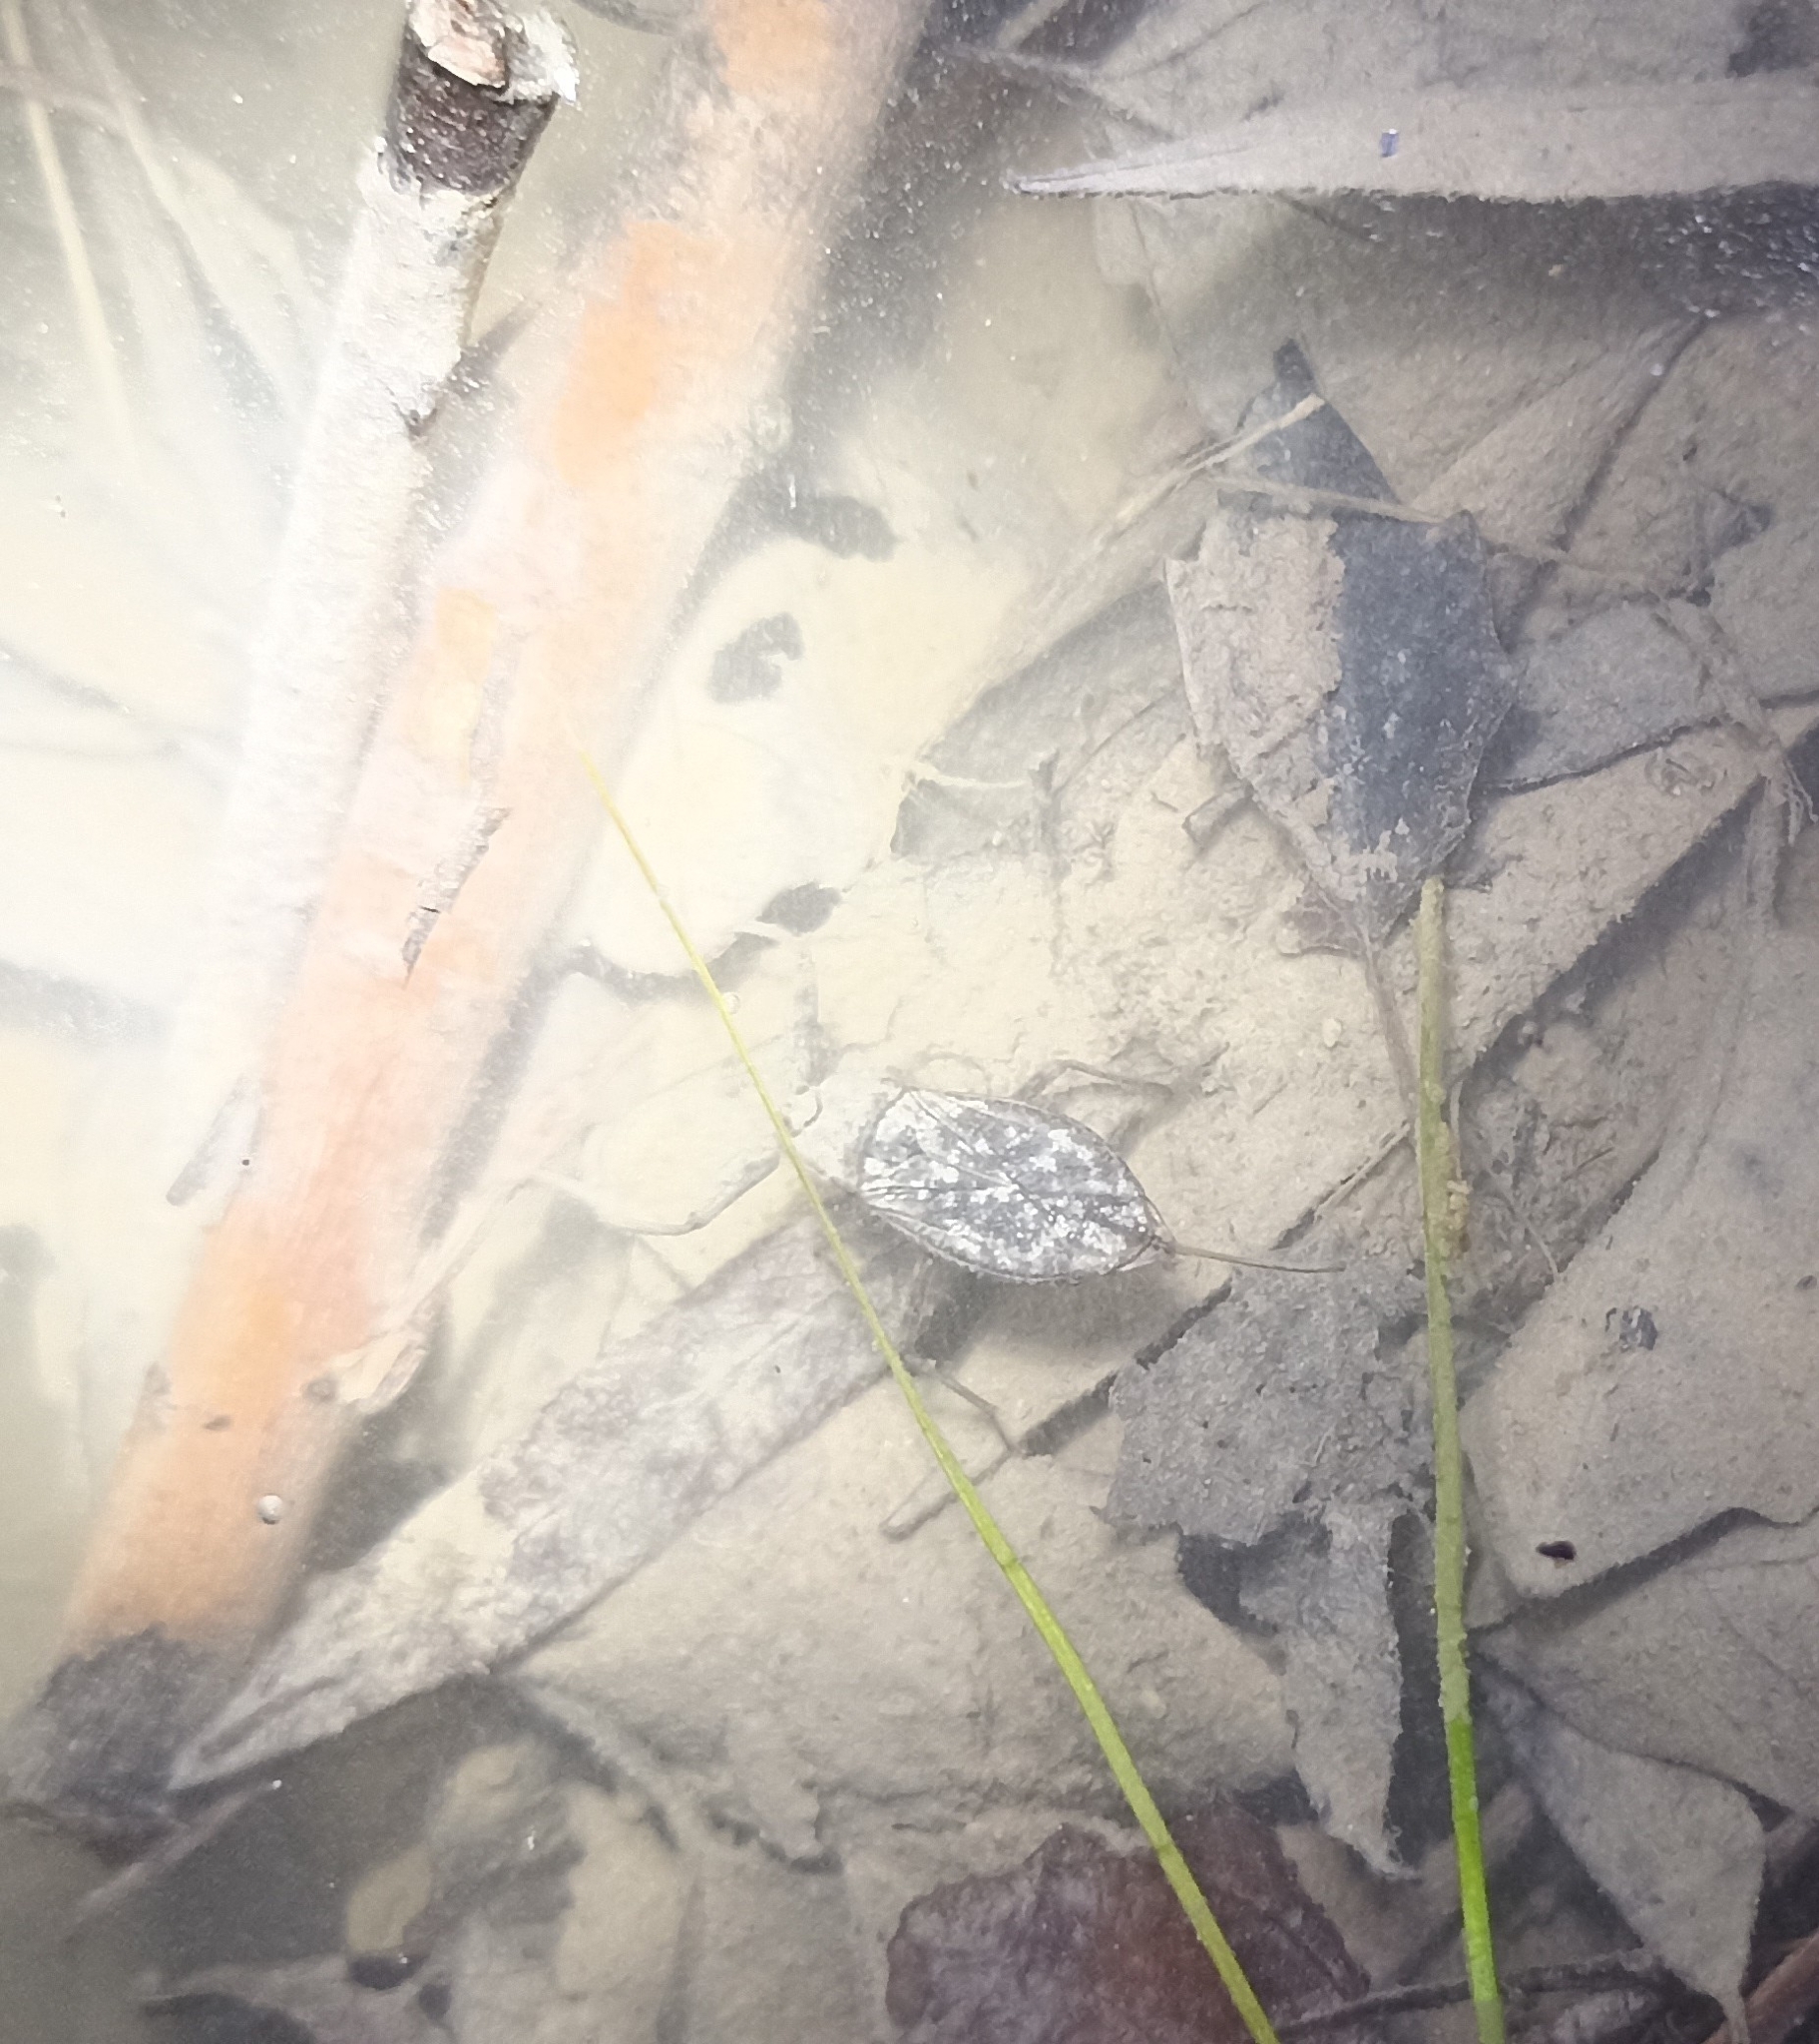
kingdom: Animalia
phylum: Arthropoda
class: Insecta
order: Hemiptera
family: Nepidae
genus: Nepa
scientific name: Nepa cinerea
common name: Water scorpion
